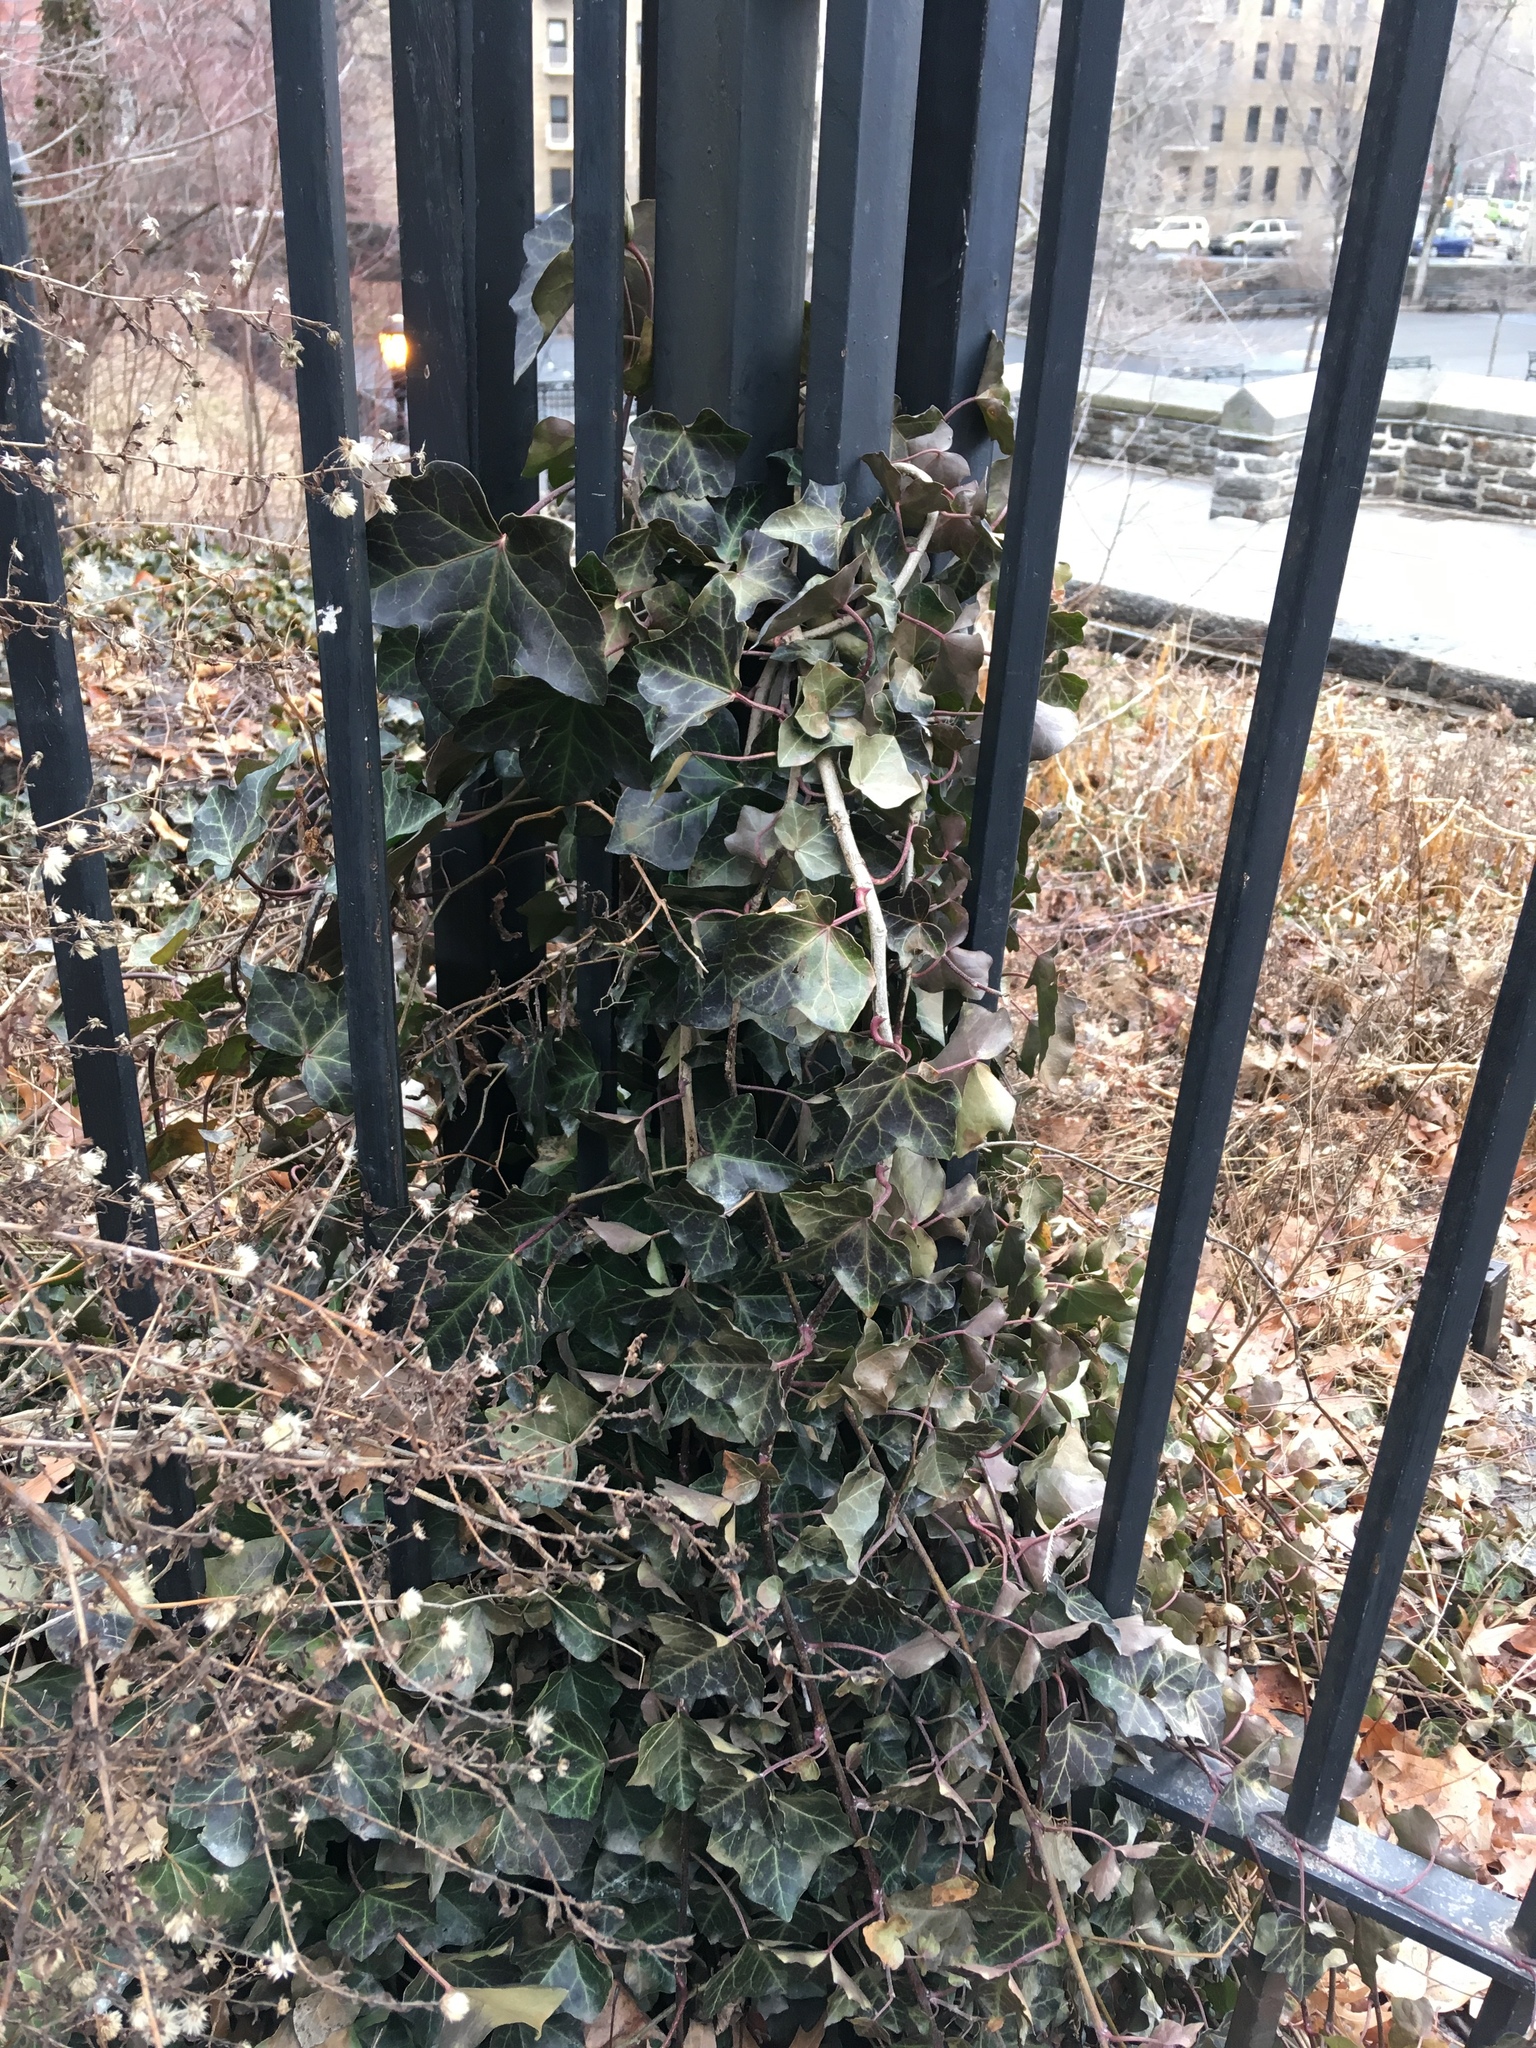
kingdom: Plantae
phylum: Tracheophyta
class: Magnoliopsida
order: Apiales
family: Araliaceae
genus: Hedera
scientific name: Hedera helix
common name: Ivy
